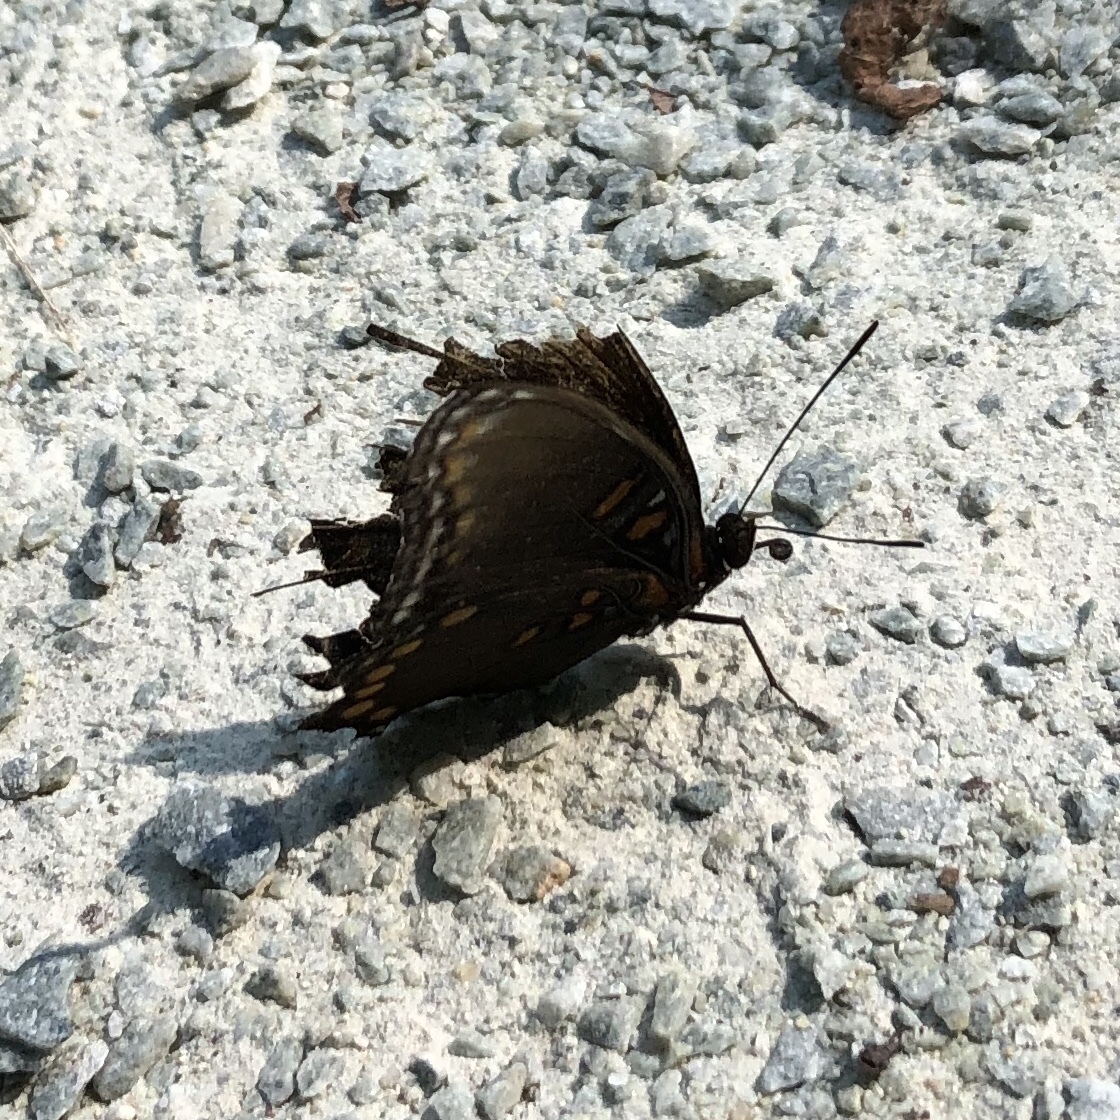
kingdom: Animalia
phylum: Arthropoda
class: Insecta
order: Lepidoptera
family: Nymphalidae
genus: Limenitis
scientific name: Limenitis astyanax
